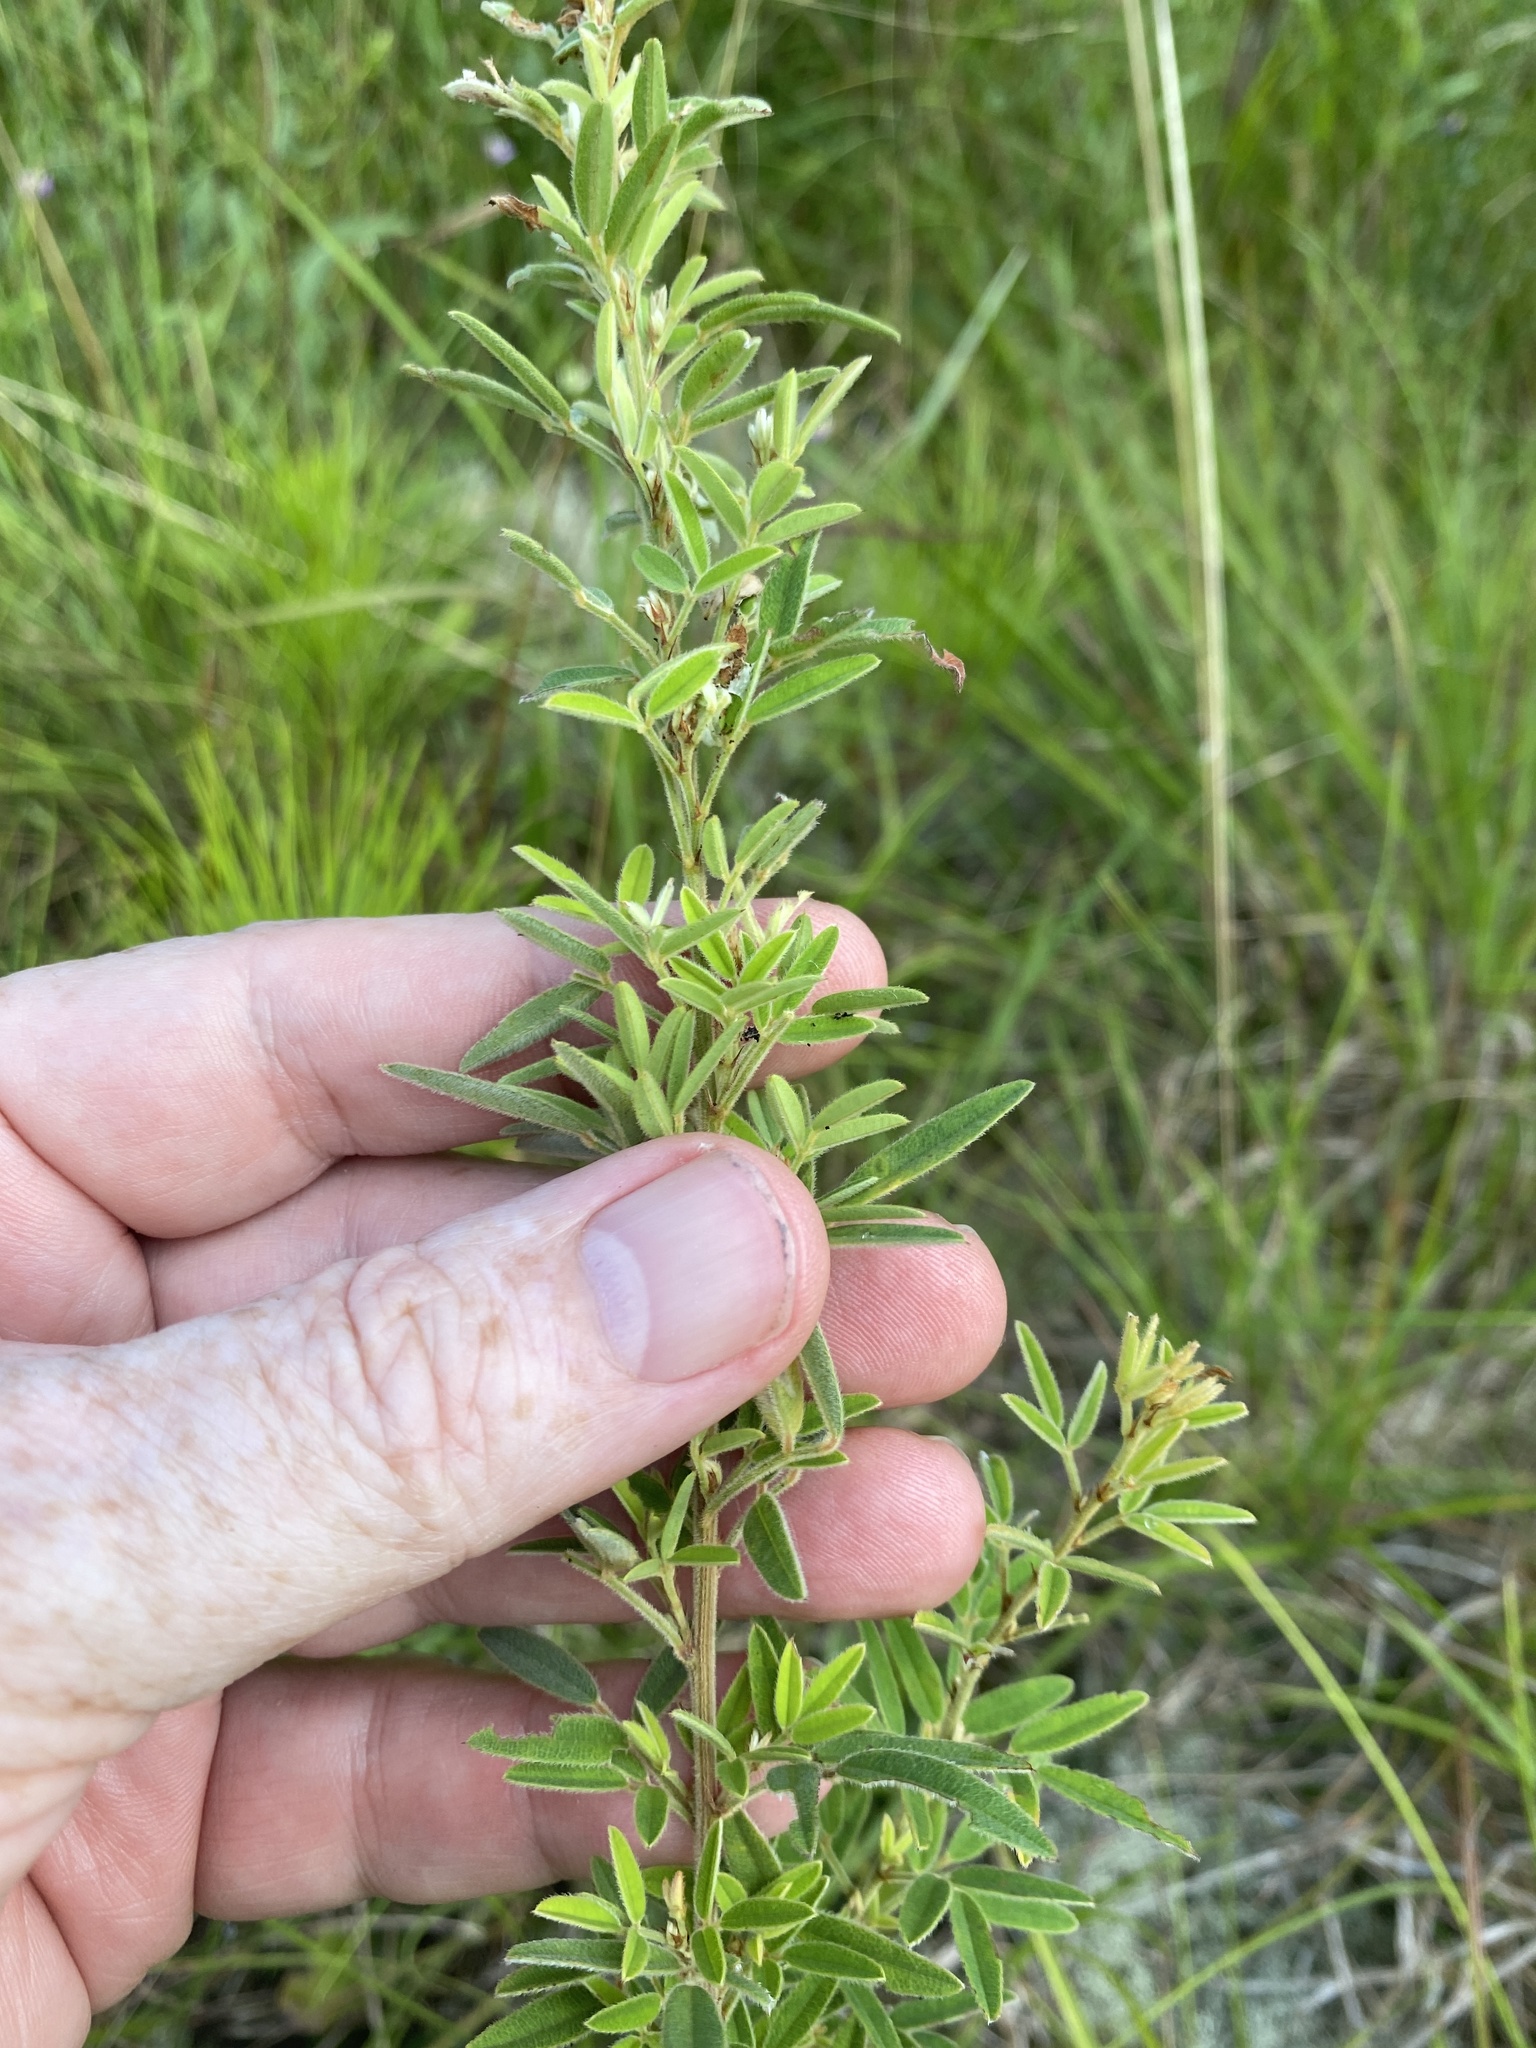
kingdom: Plantae
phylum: Tracheophyta
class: Magnoliopsida
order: Fabales
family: Fabaceae
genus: Lespedeza
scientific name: Lespedeza virginica
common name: Slender bush-clover
